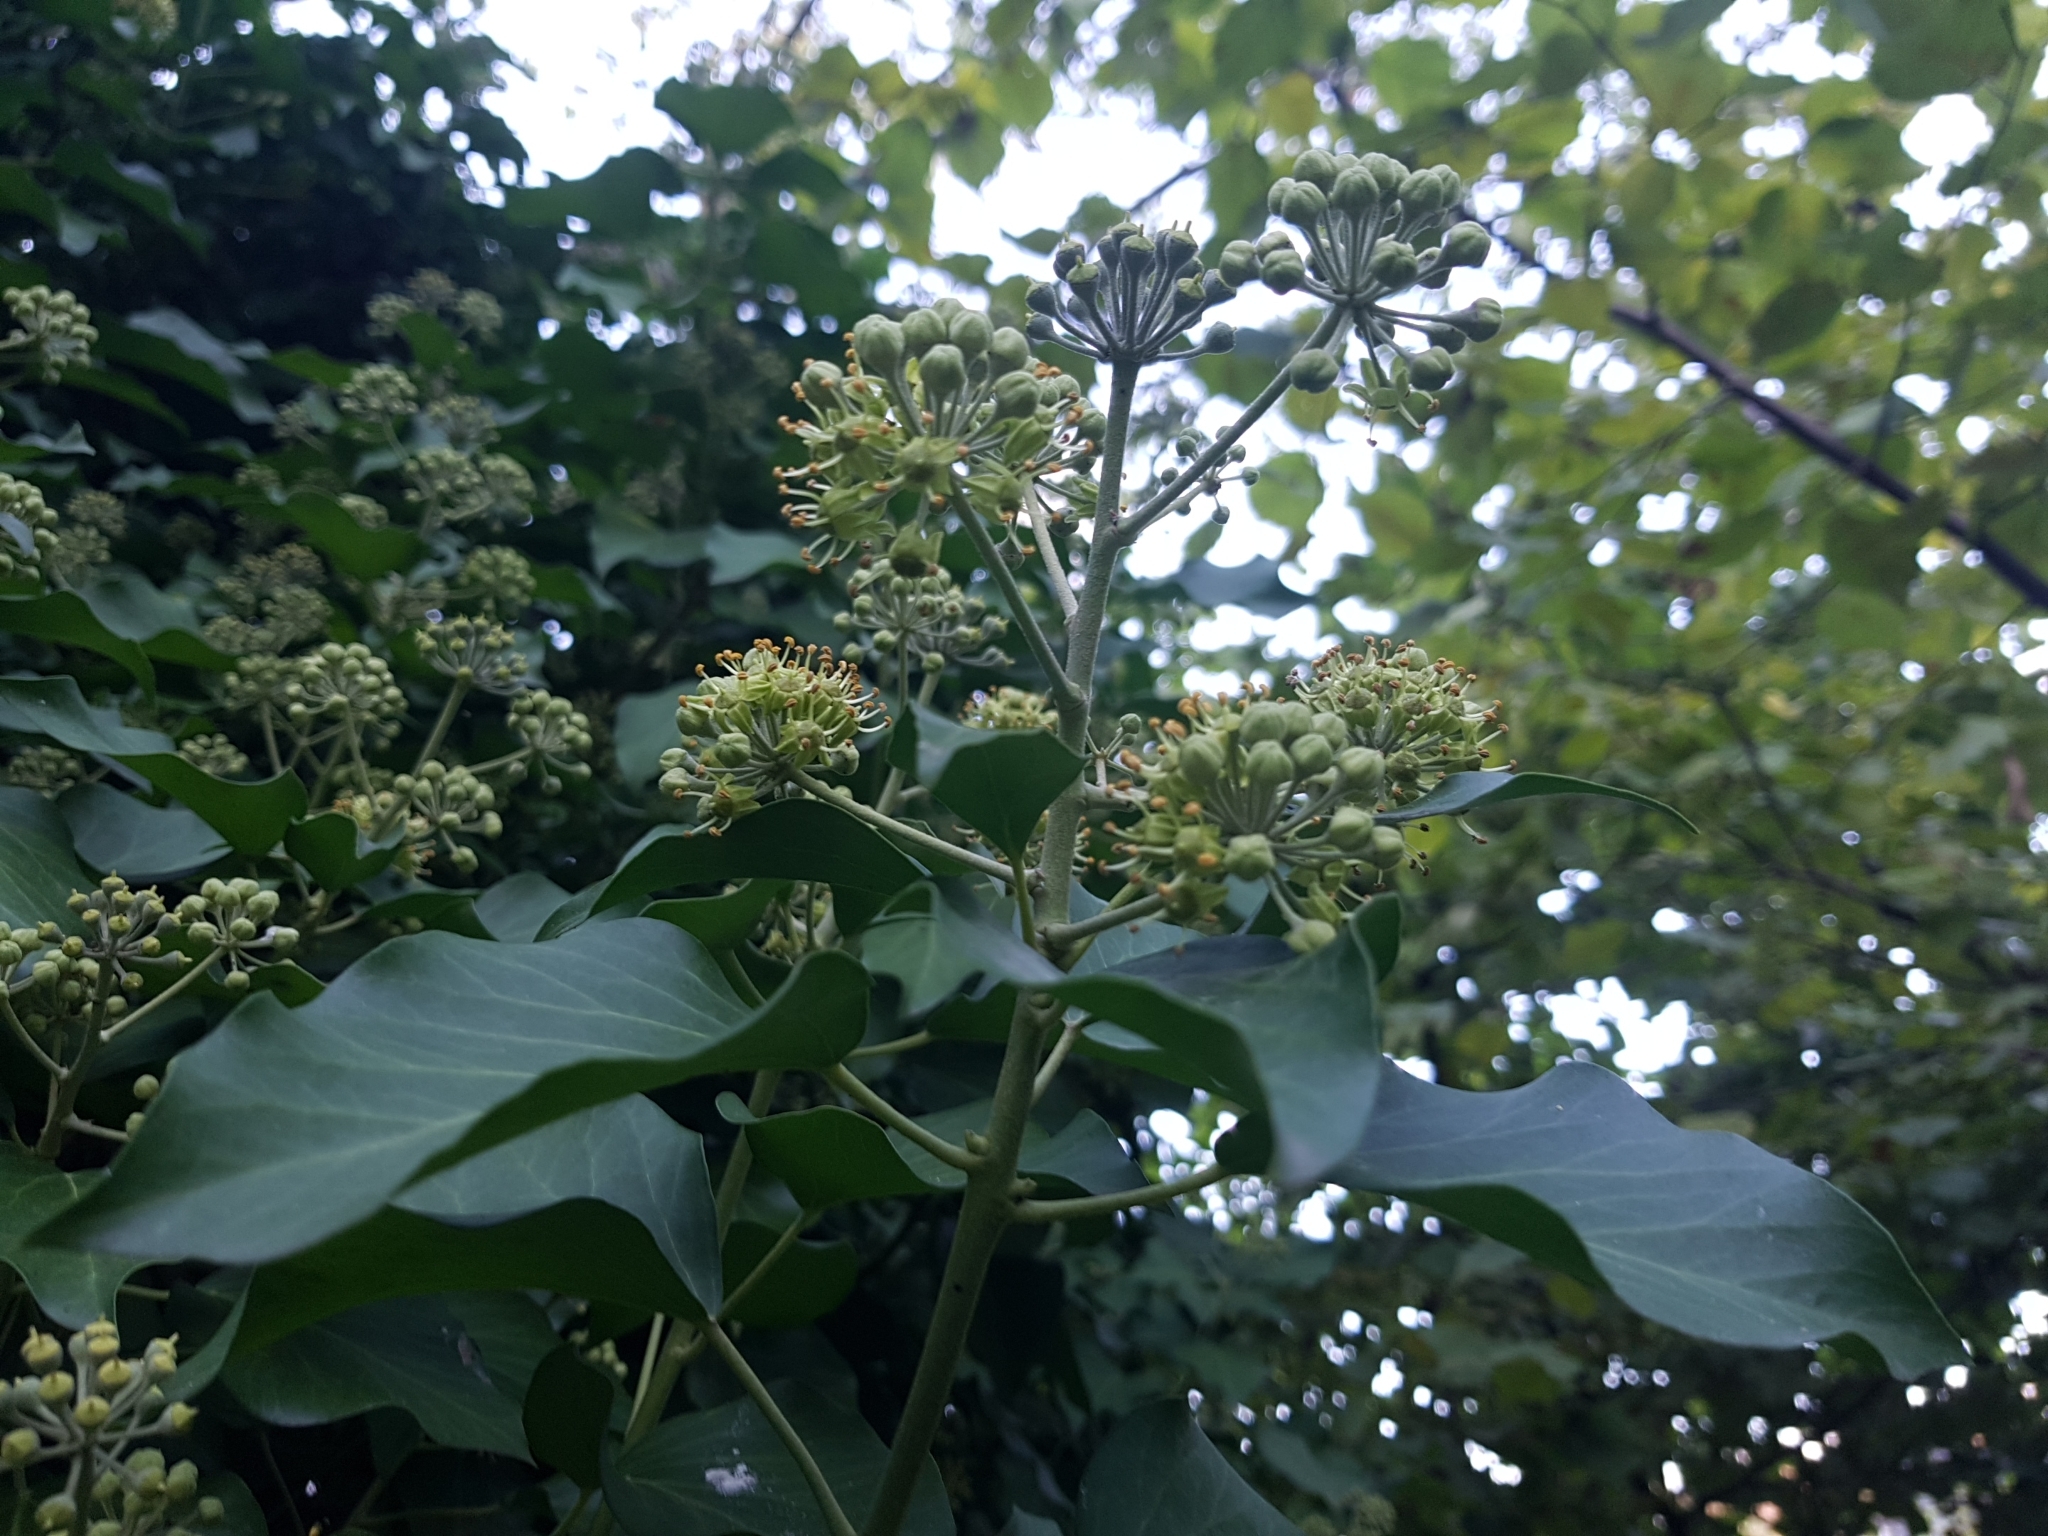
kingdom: Plantae
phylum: Tracheophyta
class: Magnoliopsida
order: Apiales
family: Araliaceae
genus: Hedera
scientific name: Hedera helix
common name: Ivy
